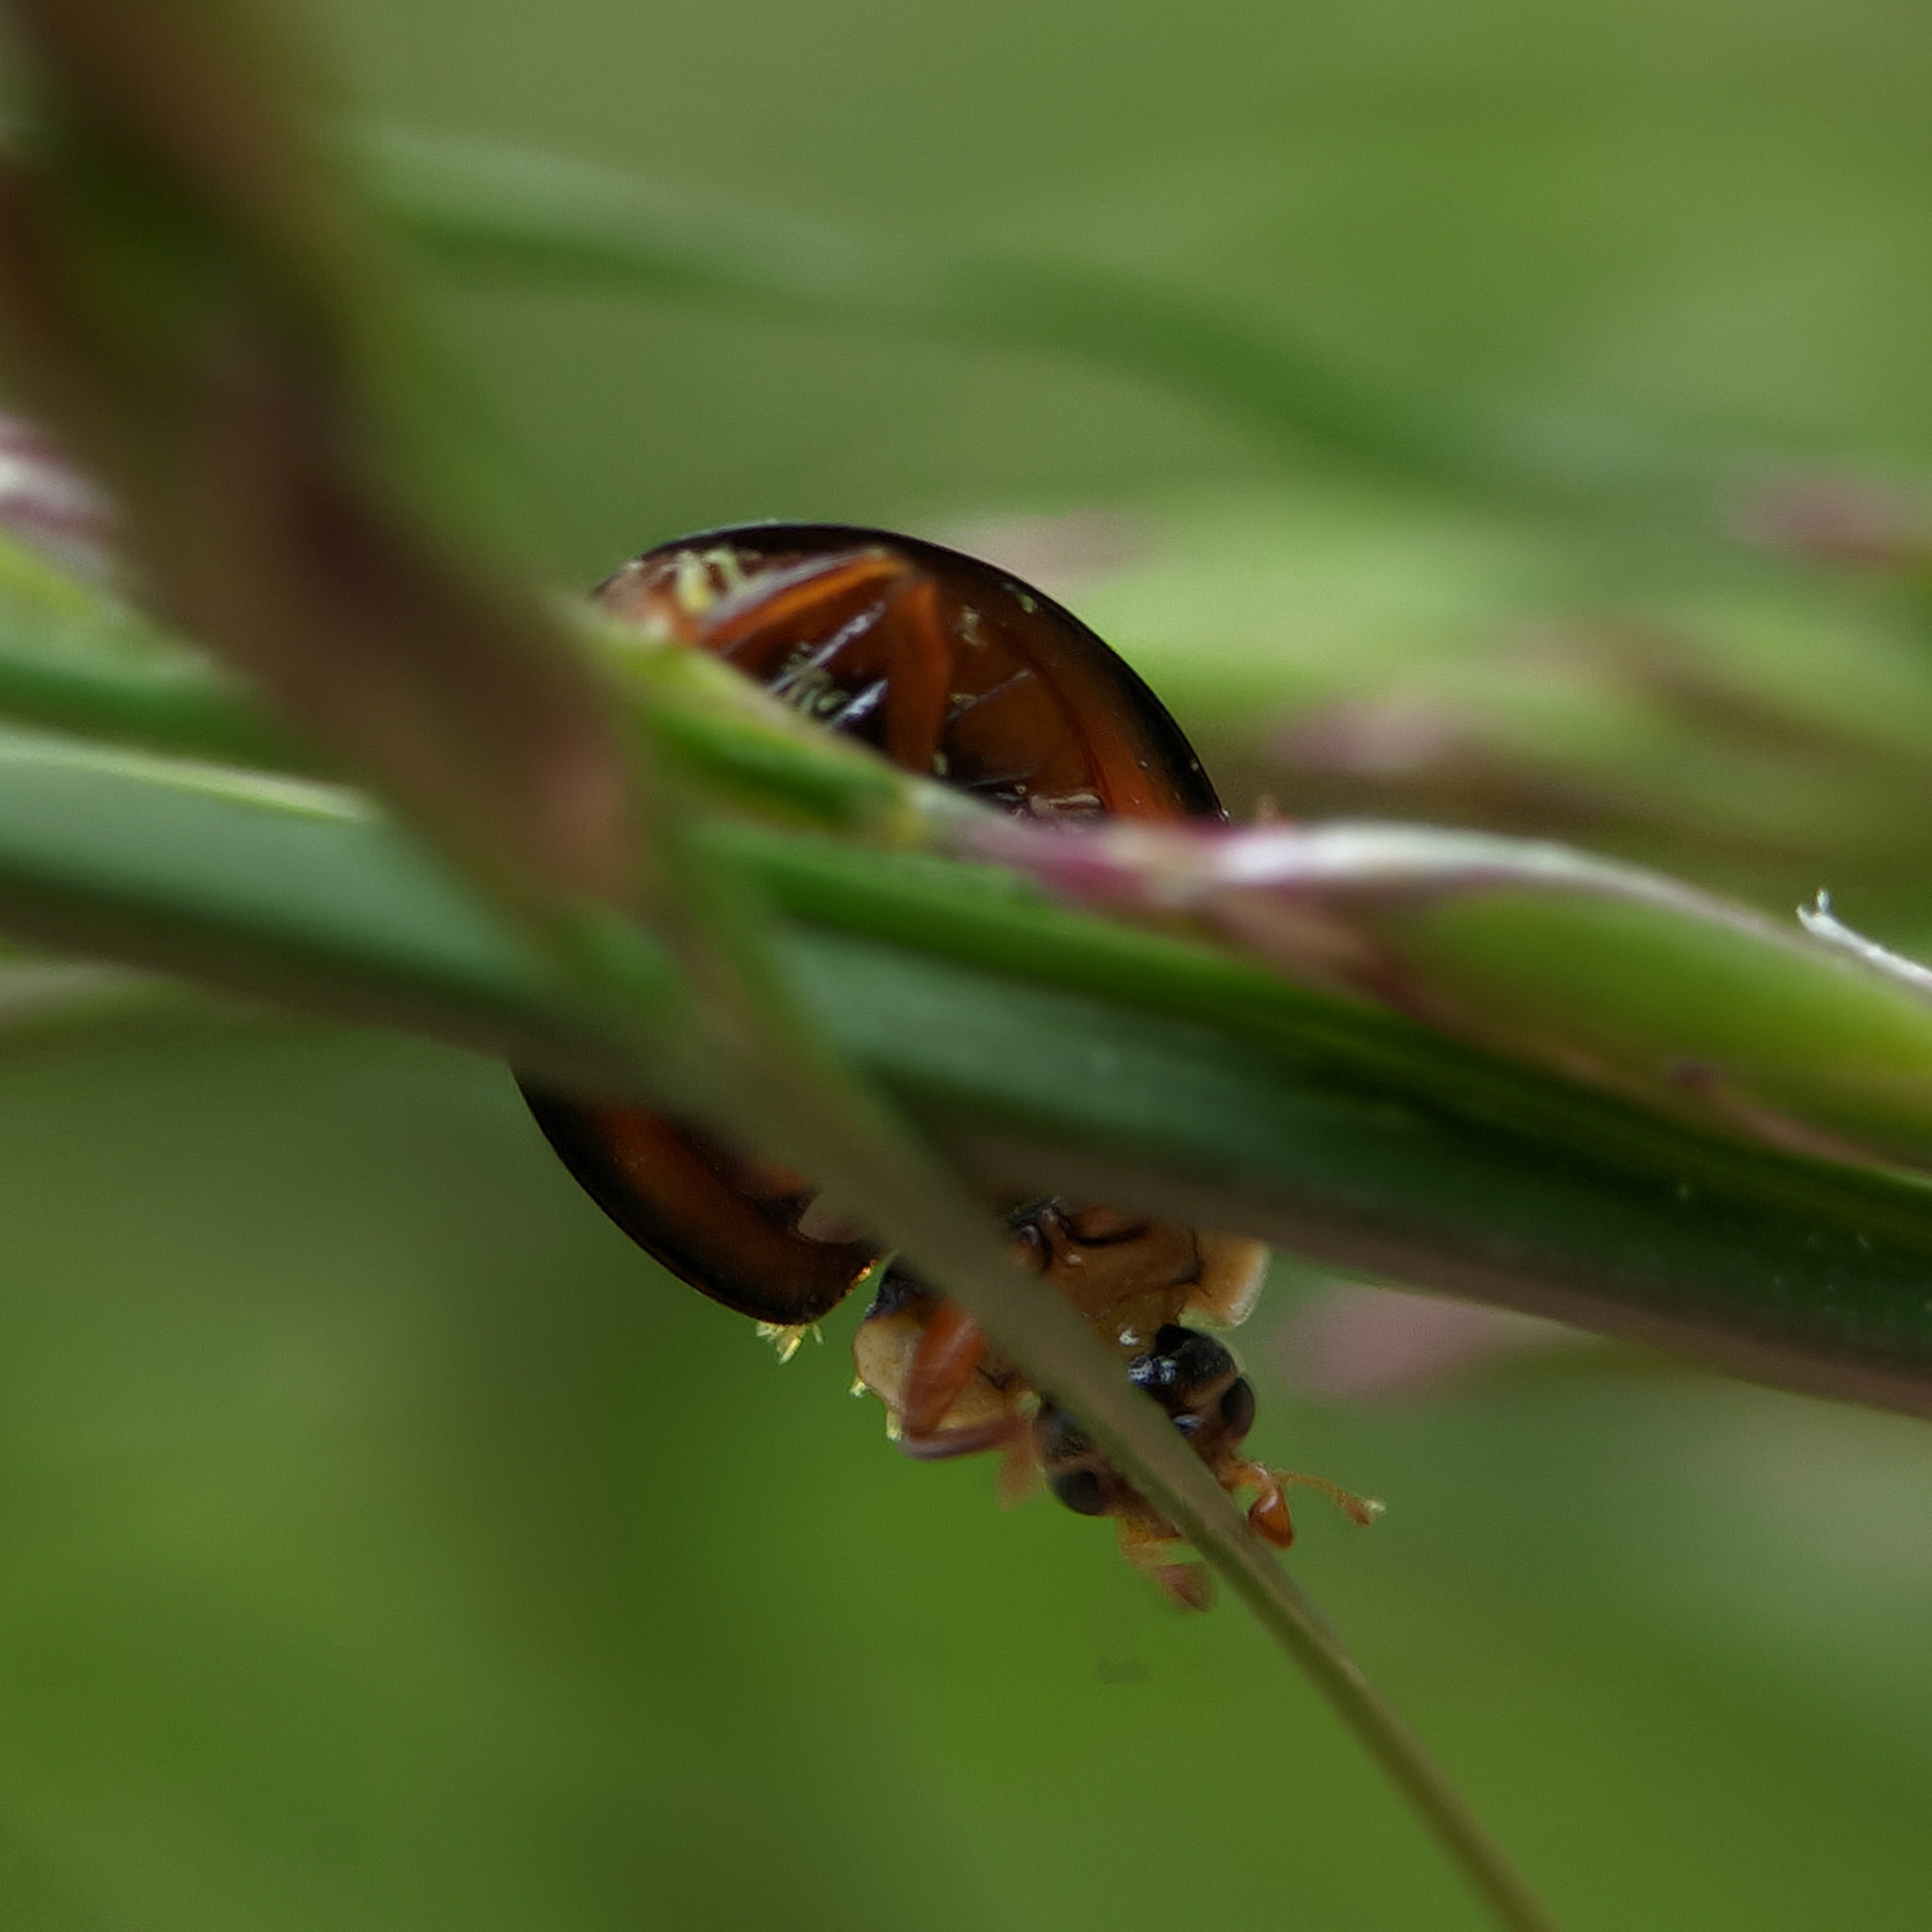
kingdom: Animalia
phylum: Arthropoda
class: Insecta
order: Coleoptera
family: Coccinellidae
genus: Harmonia
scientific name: Harmonia axyridis
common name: Harlequin ladybird
